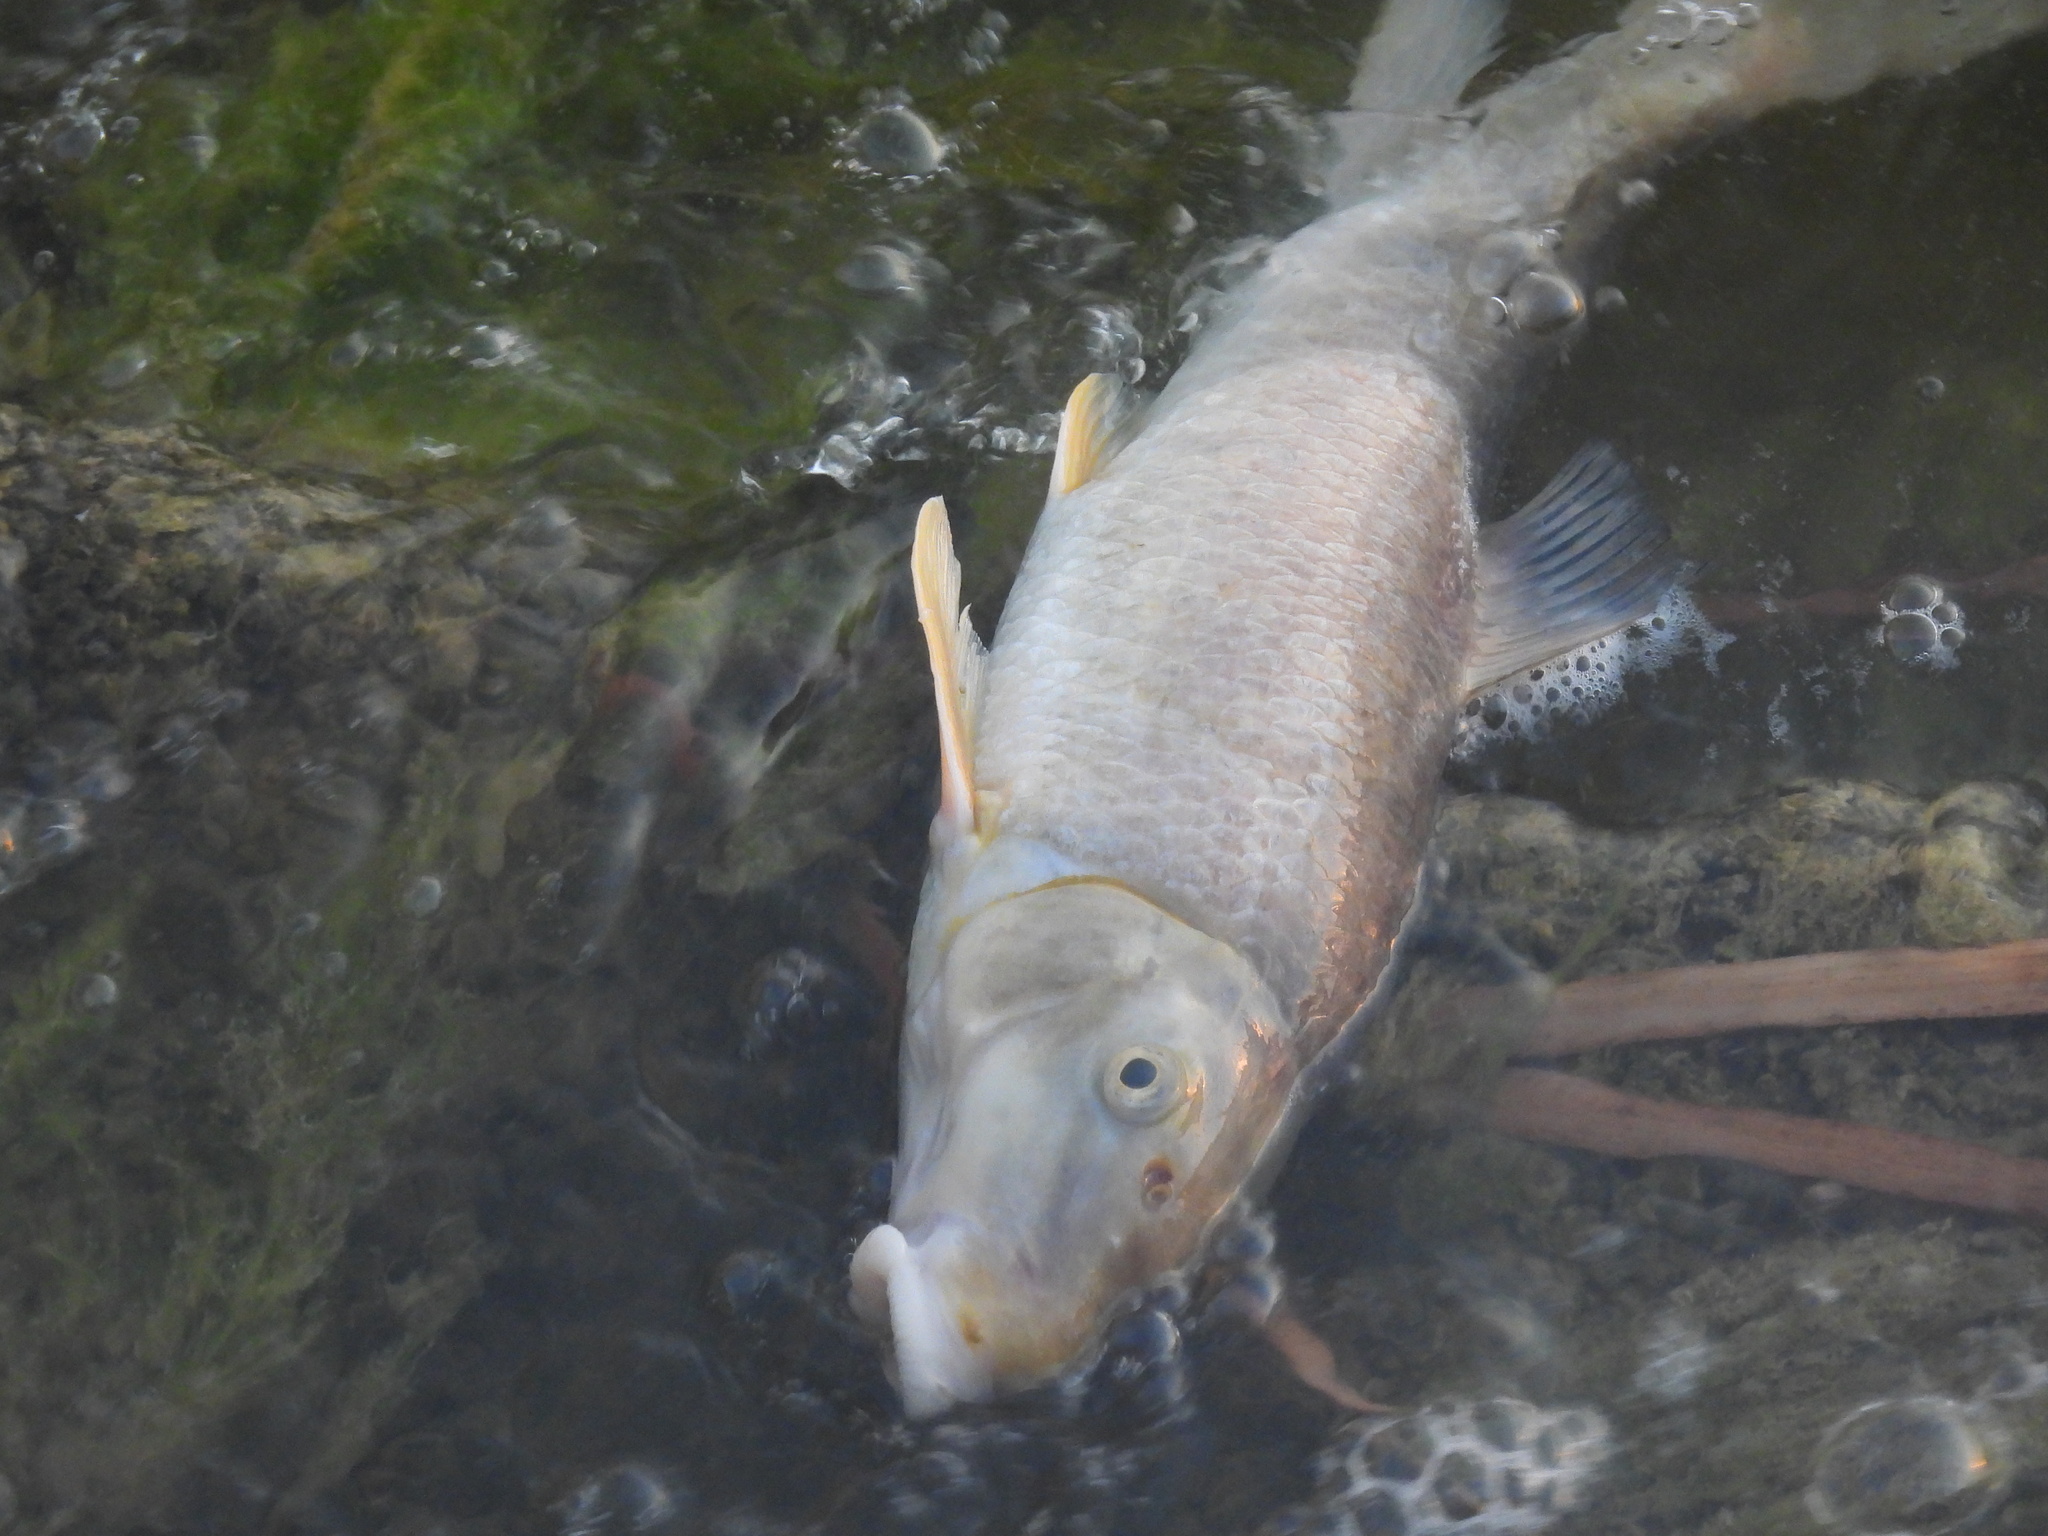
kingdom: Animalia
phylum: Chordata
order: Cypriniformes
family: Catostomidae
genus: Moxostoma
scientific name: Moxostoma congestum
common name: Gray redhorse
